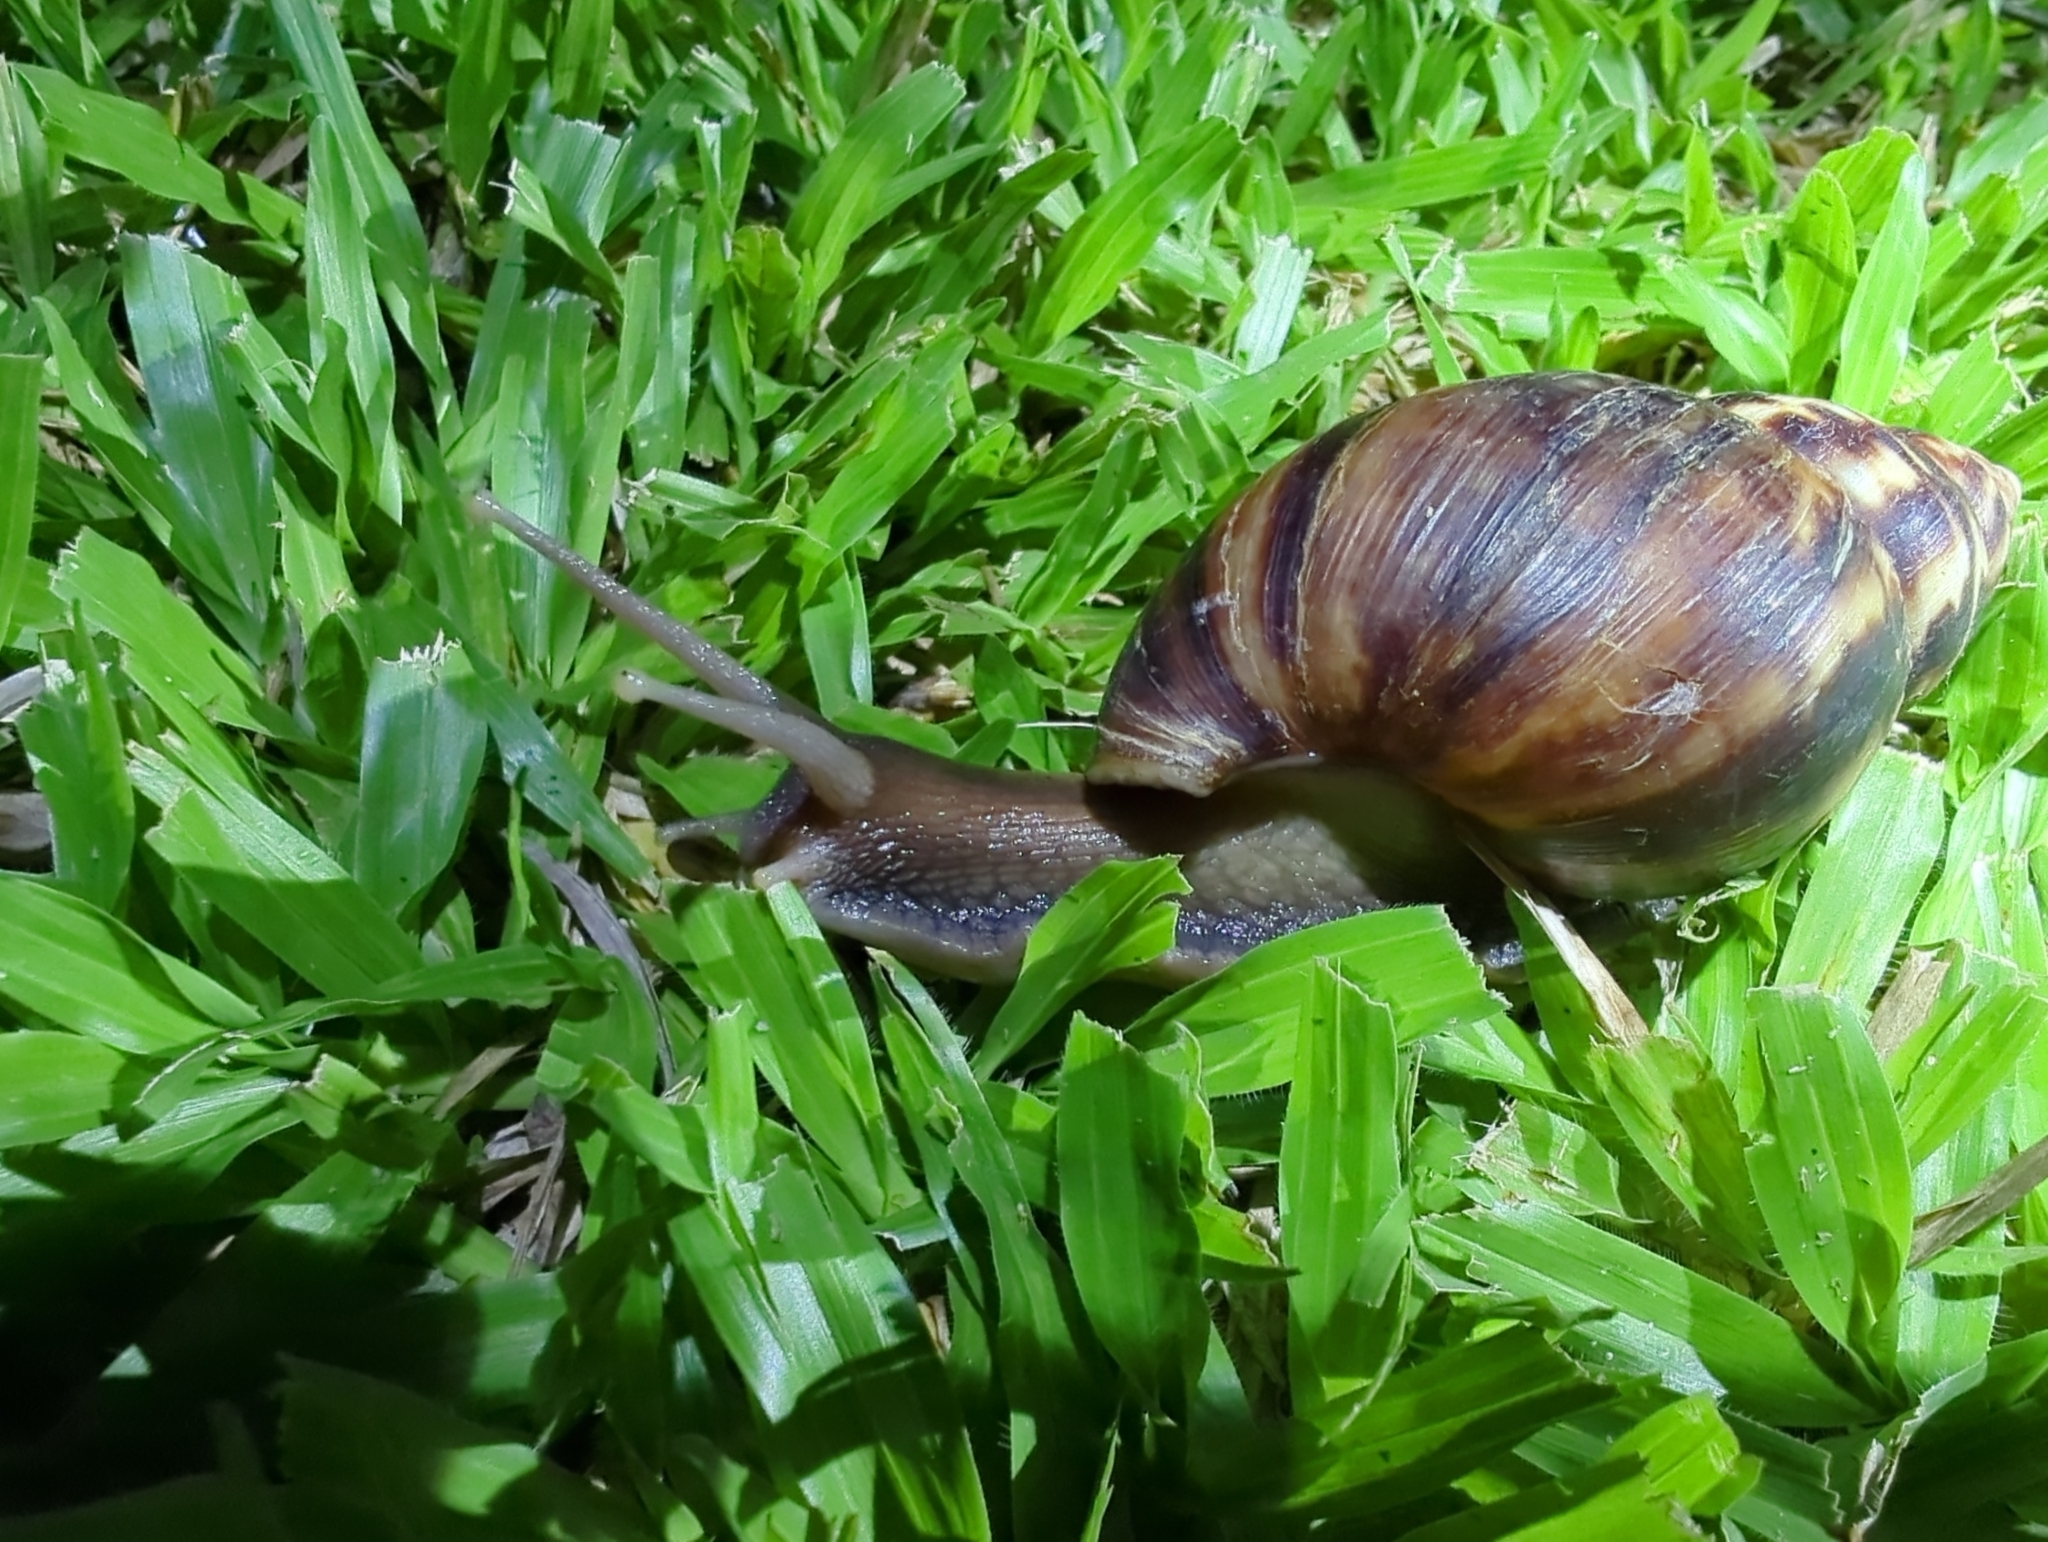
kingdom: Animalia
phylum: Mollusca
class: Gastropoda
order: Stylommatophora
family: Achatinidae
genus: Lissachatina
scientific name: Lissachatina fulica
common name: Giant african snail
